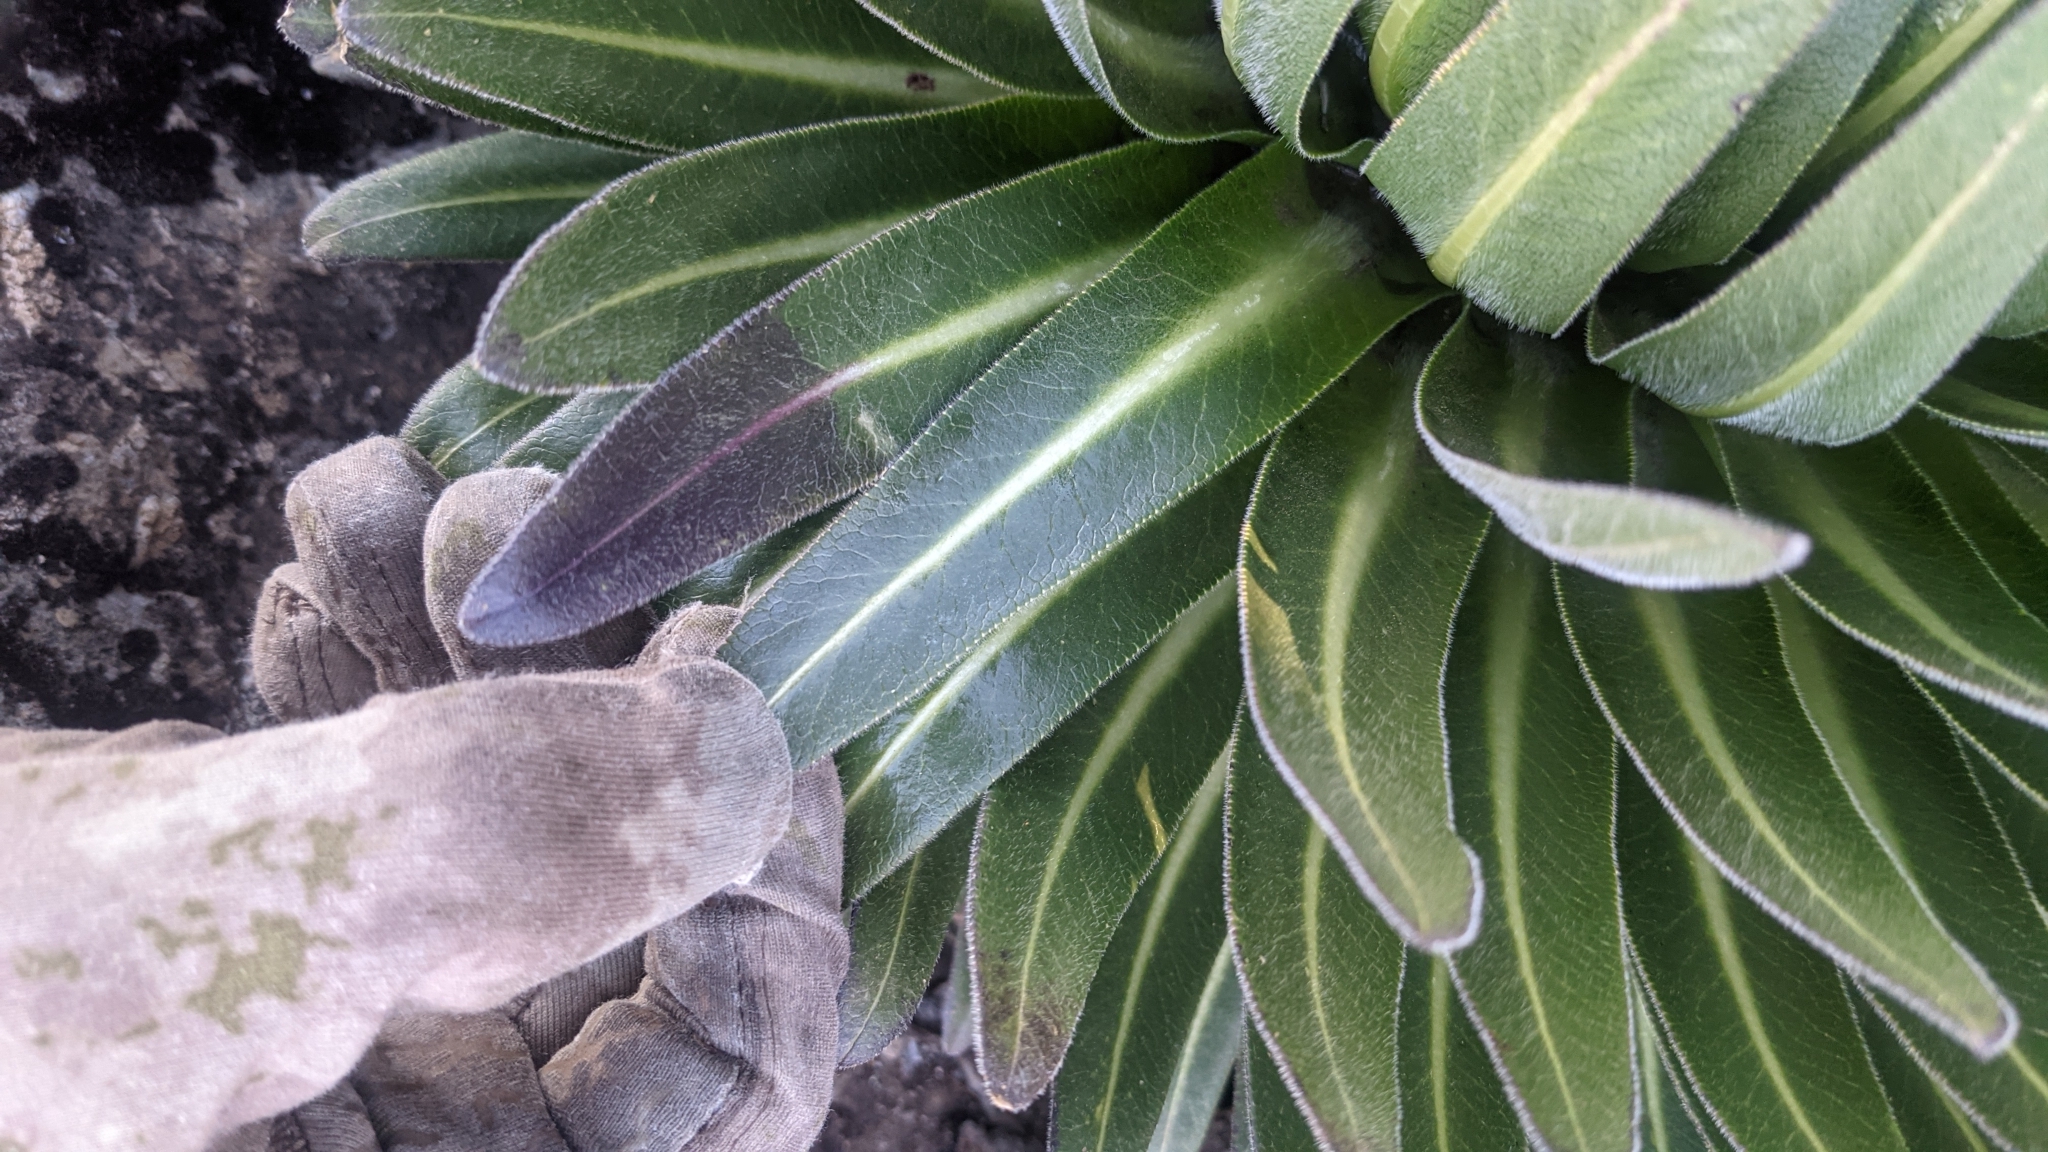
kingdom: Plantae
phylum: Tracheophyta
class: Magnoliopsida
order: Asterales
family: Campanulaceae
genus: Lobelia
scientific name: Lobelia deckenii
